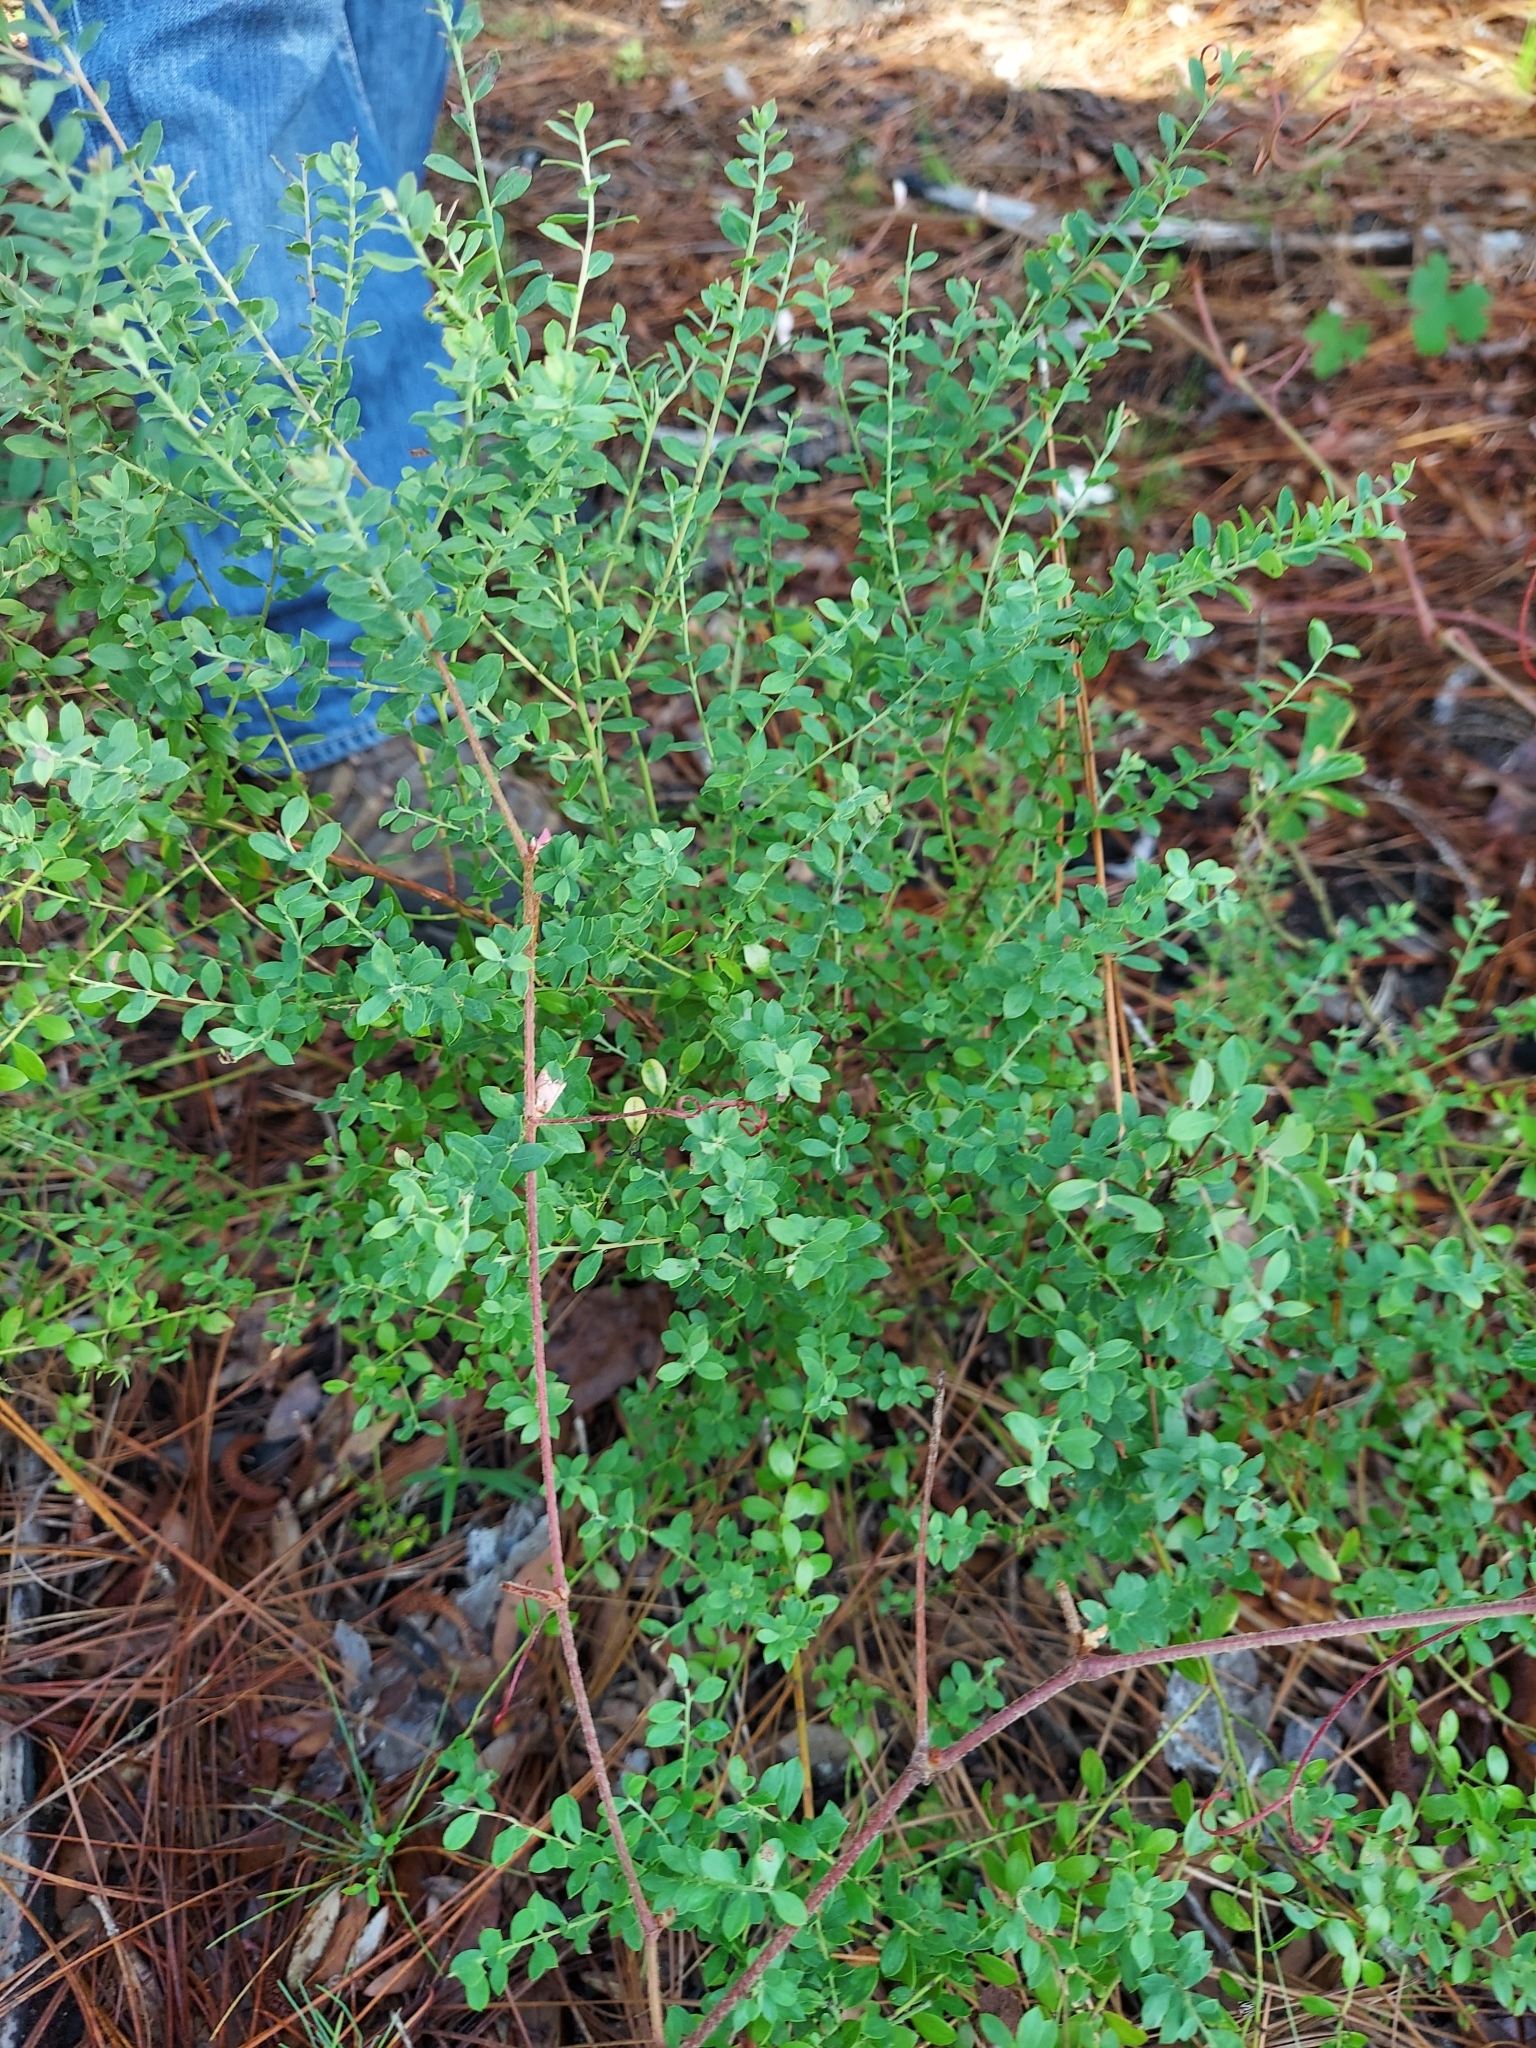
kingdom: Plantae
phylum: Tracheophyta
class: Magnoliopsida
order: Ericales
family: Ericaceae
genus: Vaccinium
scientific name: Vaccinium darrowii
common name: Darrow's blueberry
